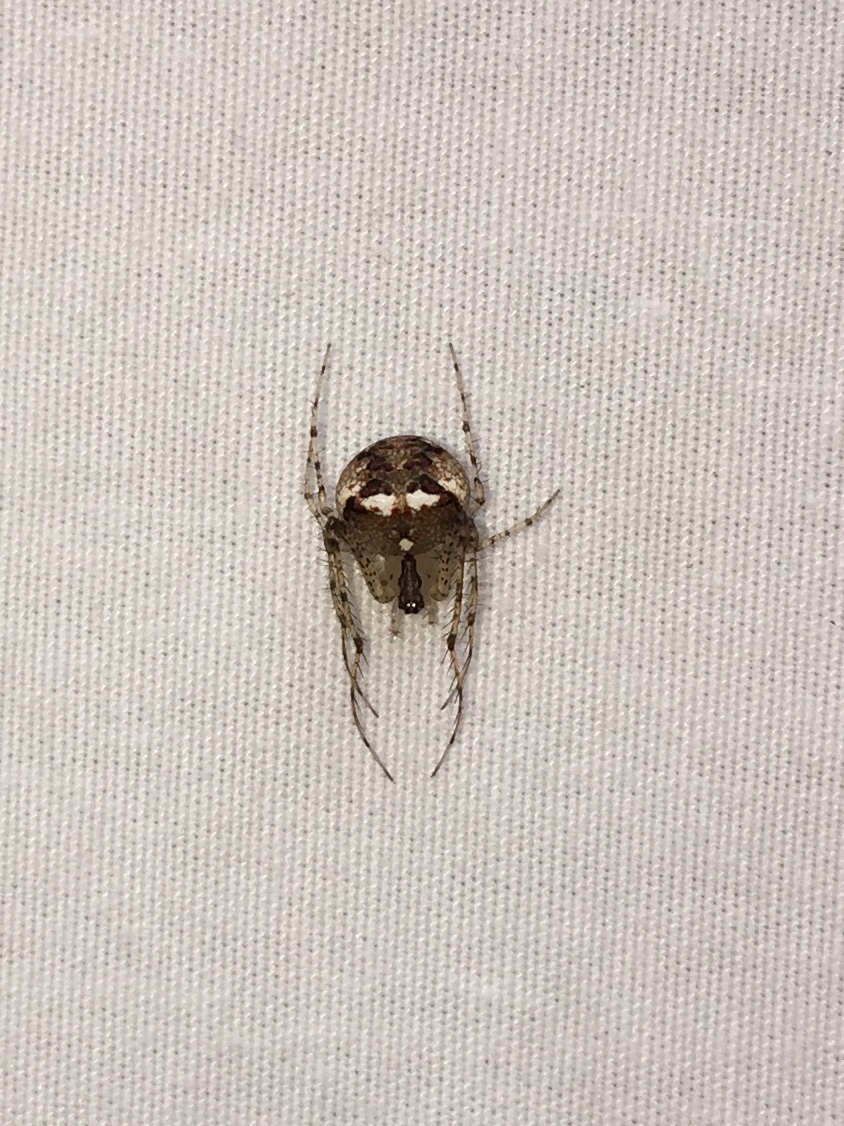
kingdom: Animalia
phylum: Arthropoda
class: Arachnida
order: Araneae
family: Mimetidae
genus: Mimetus
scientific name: Mimetus puritanus
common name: Common pirate spider
